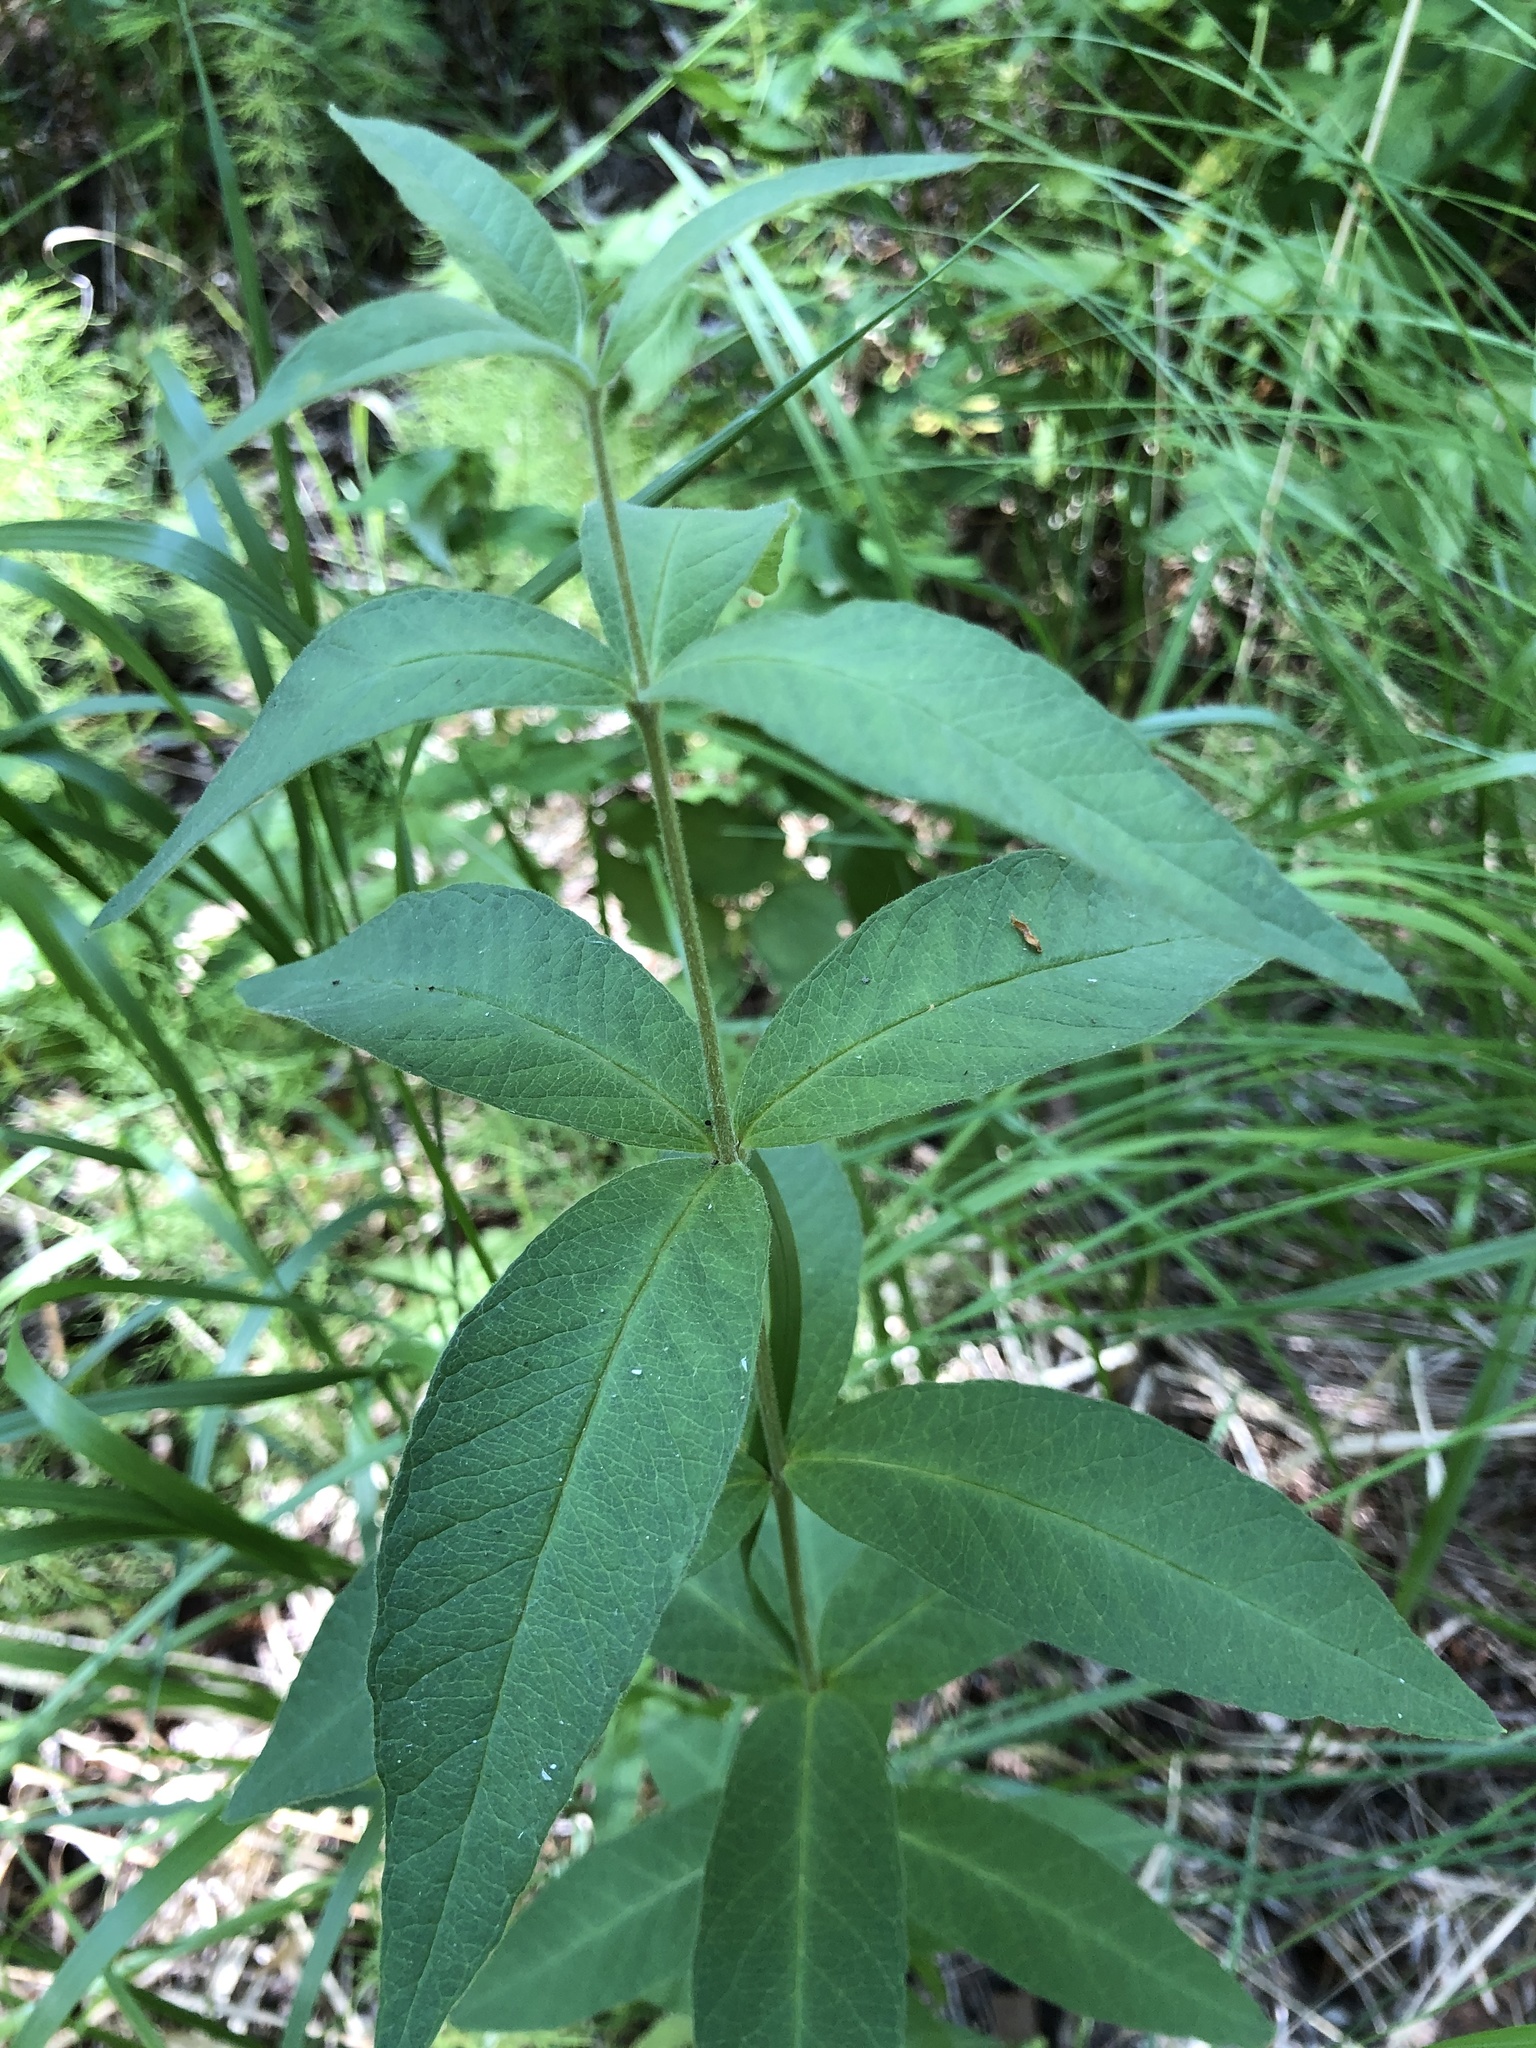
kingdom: Plantae
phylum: Tracheophyta
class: Magnoliopsida
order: Ericales
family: Primulaceae
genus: Lysimachia
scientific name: Lysimachia vulgaris
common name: Yellow loosestrife
